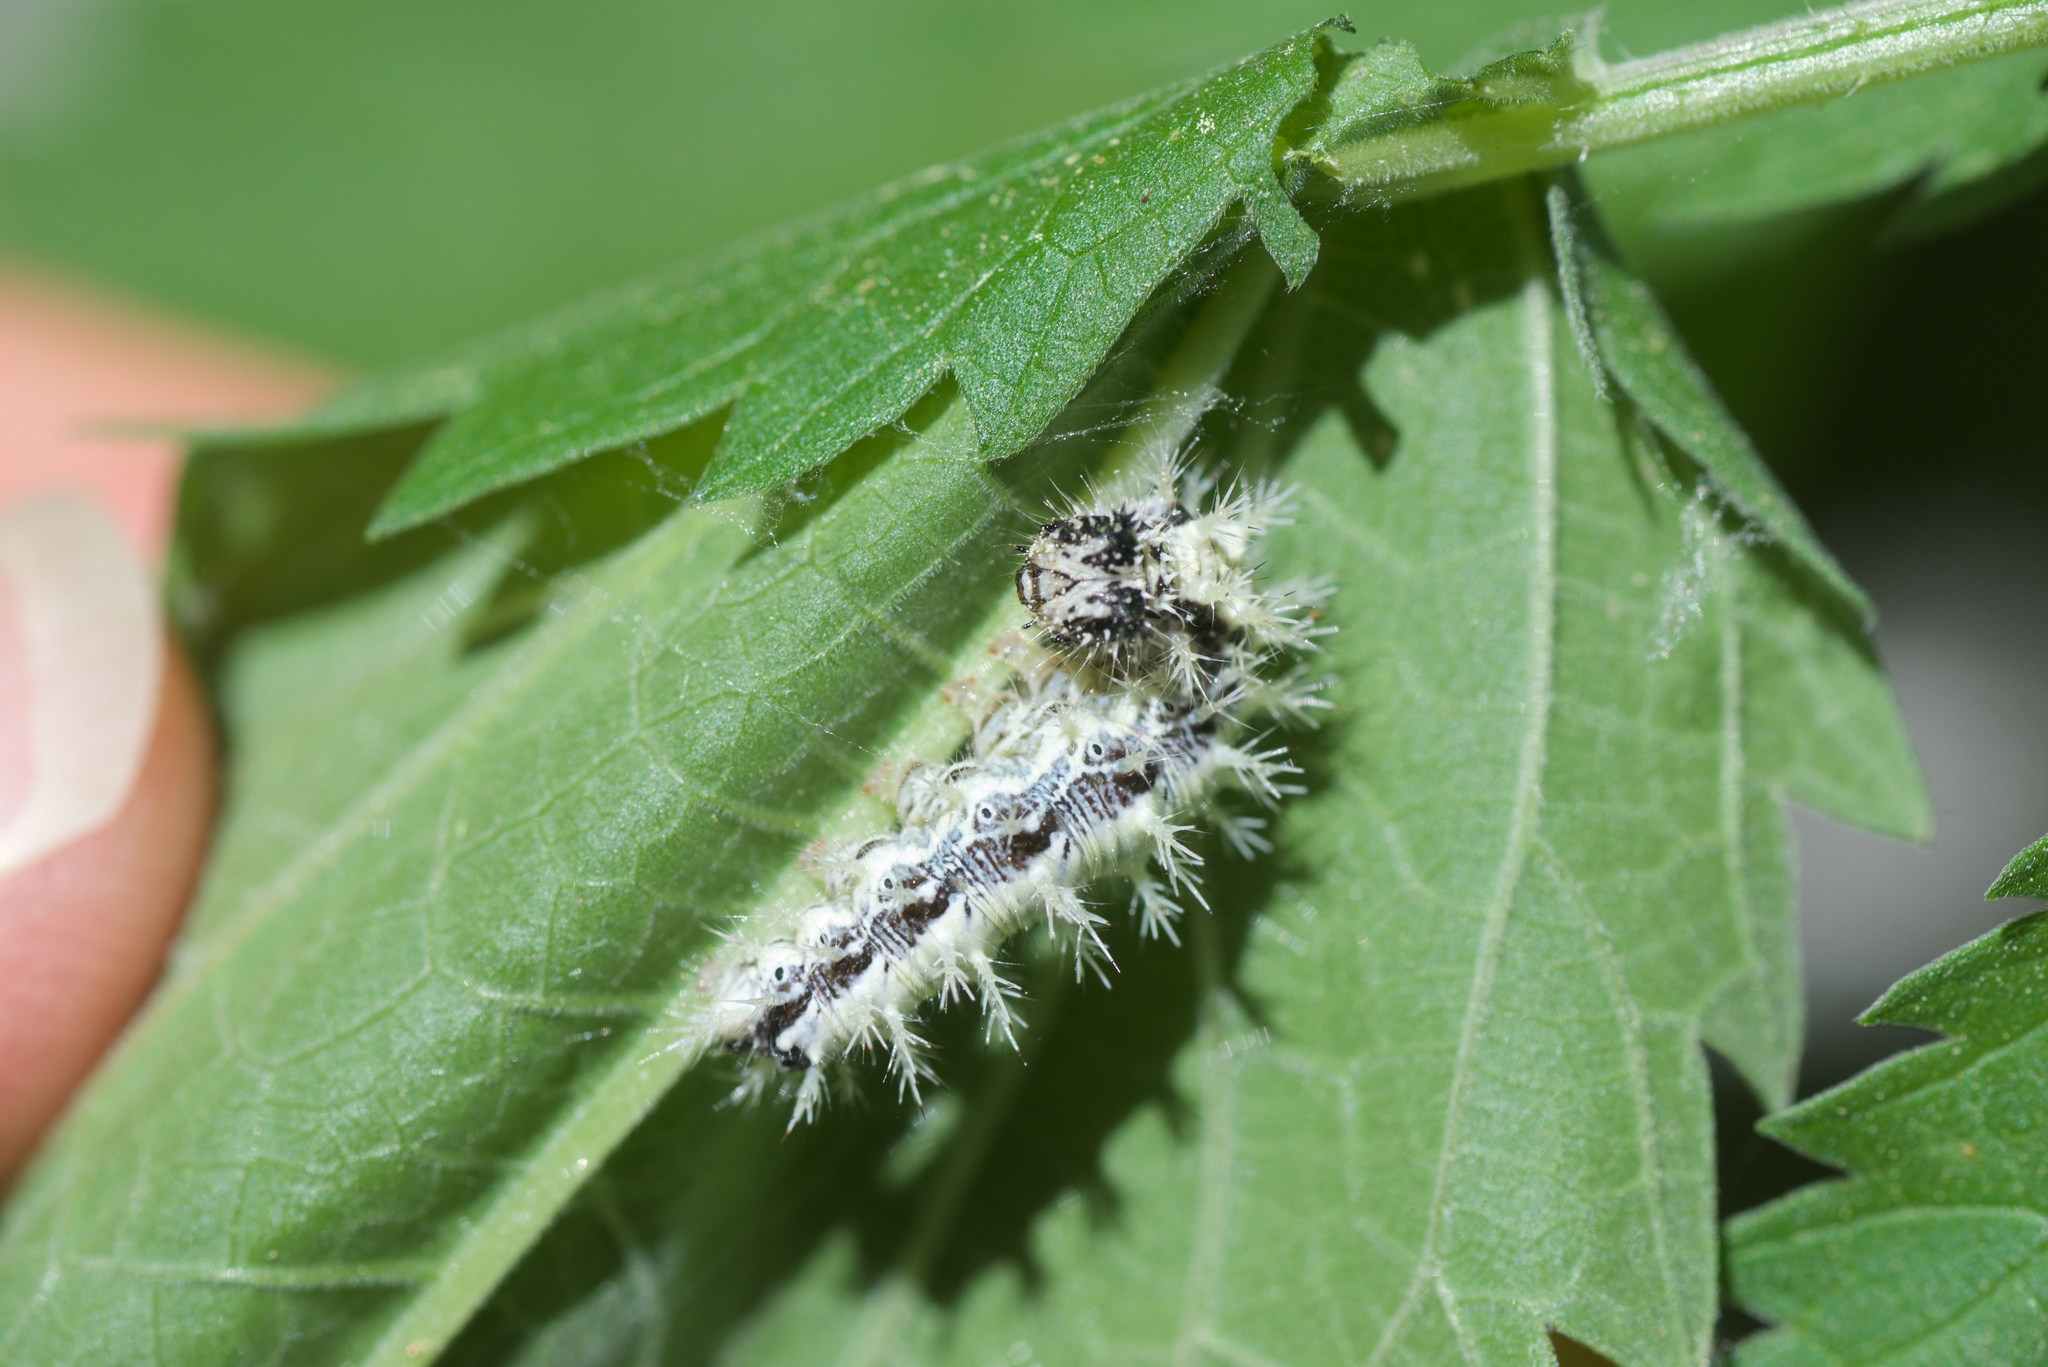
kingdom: Animalia
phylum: Arthropoda
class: Insecta
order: Lepidoptera
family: Nymphalidae
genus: Polygonia
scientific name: Polygonia satyrus
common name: Satyr angle wing
